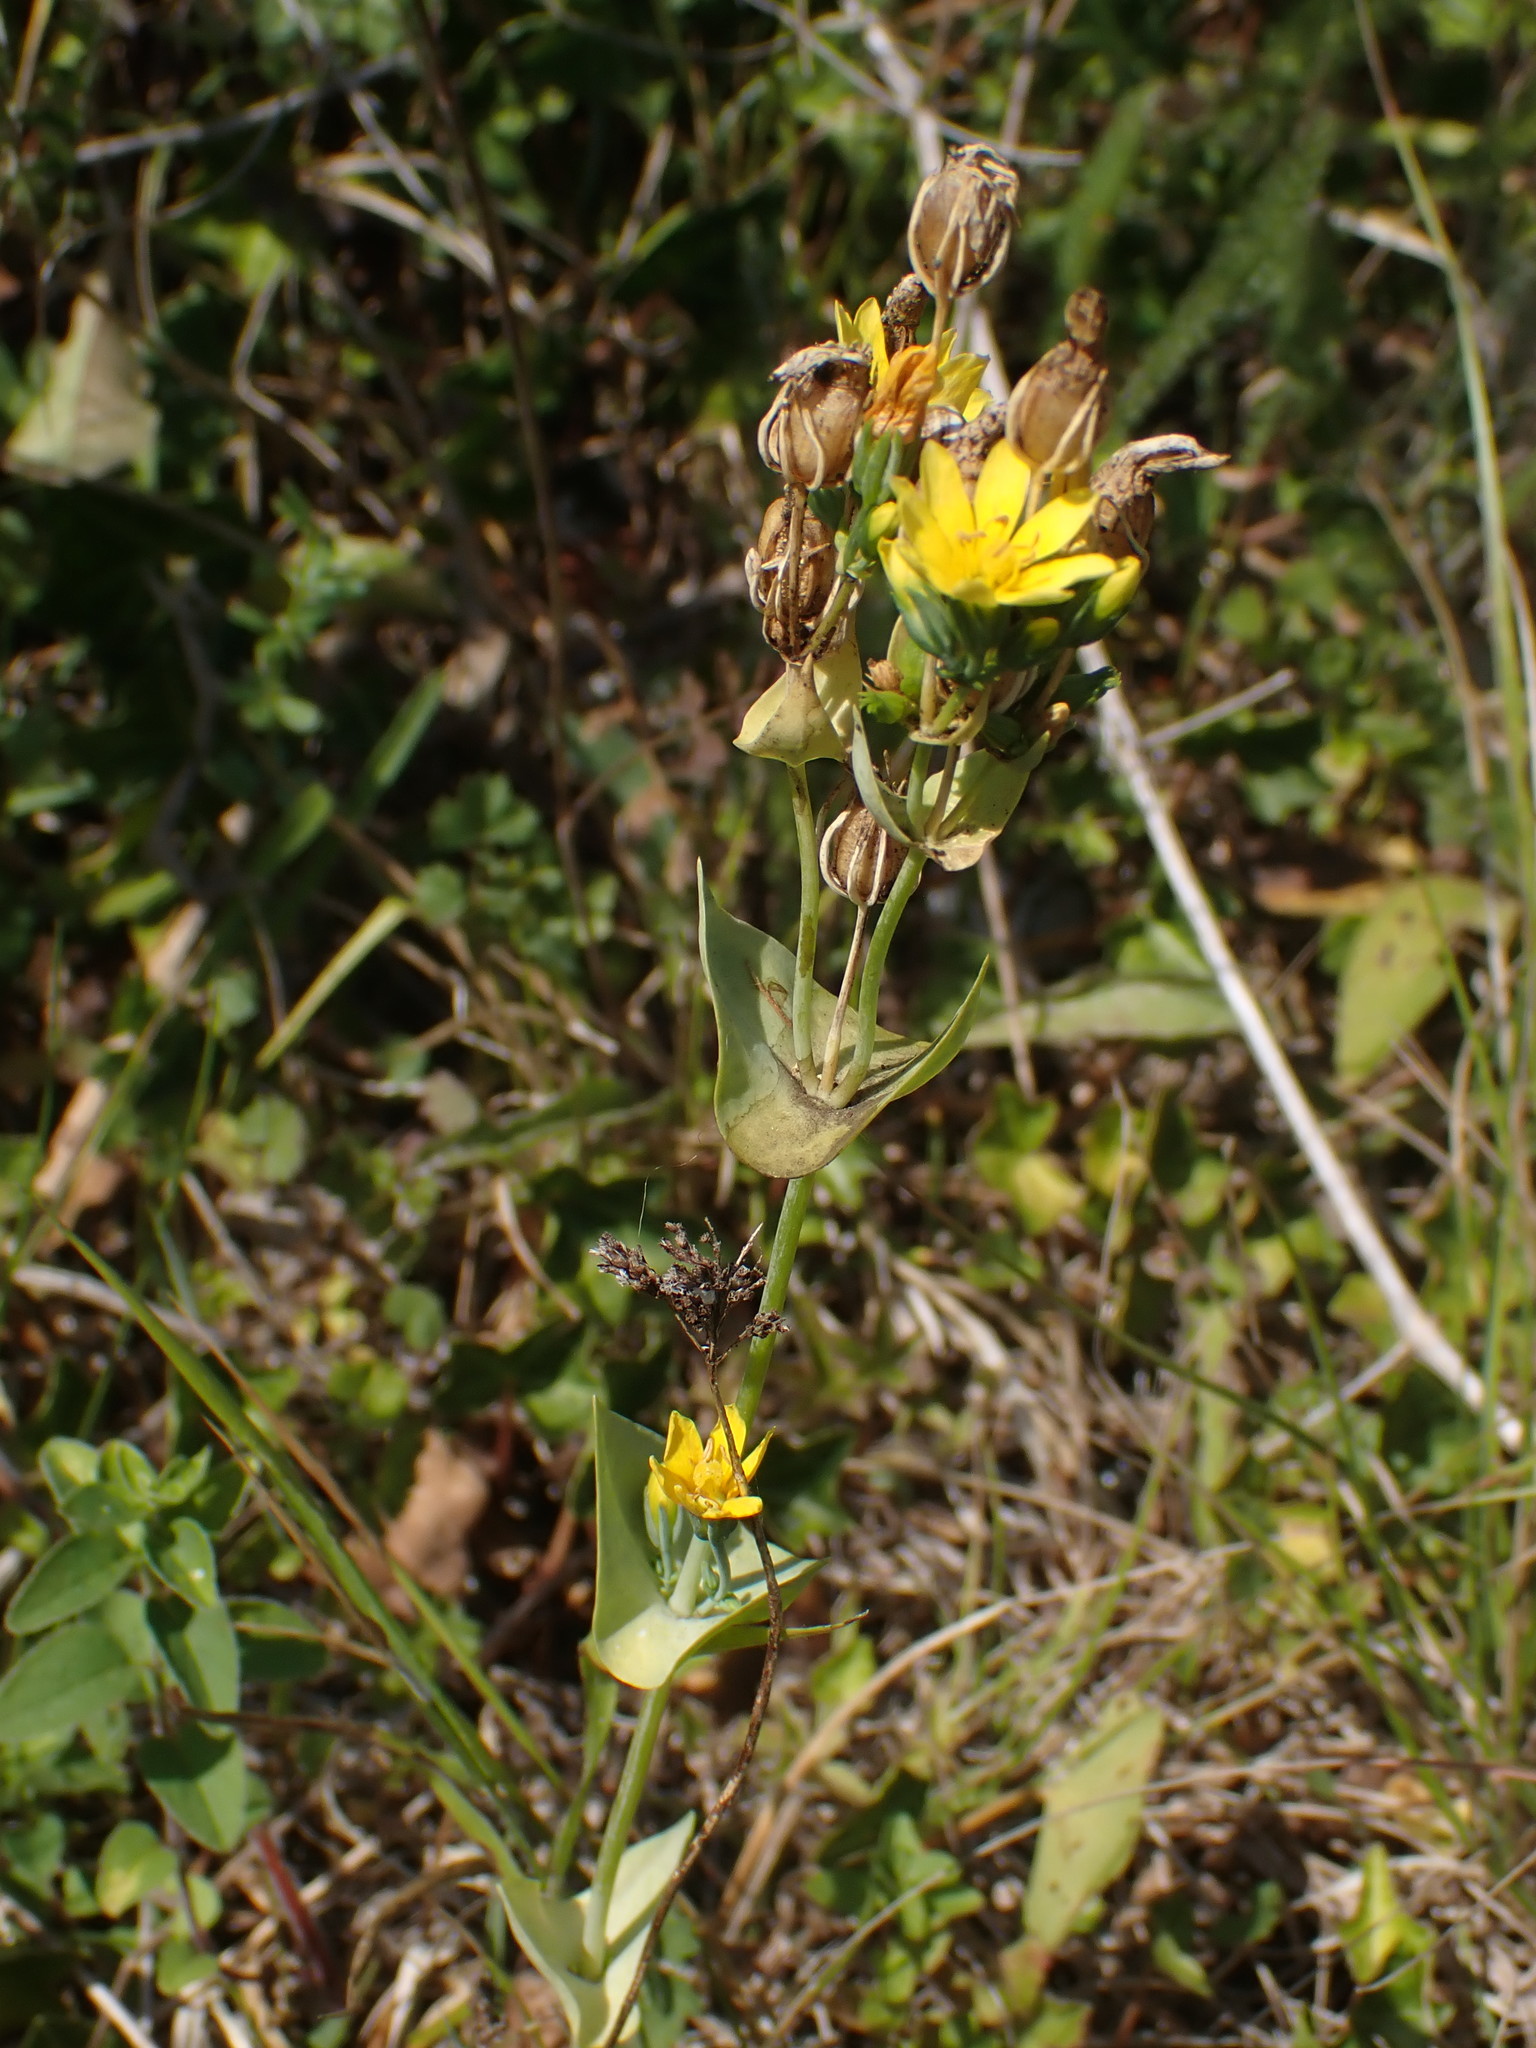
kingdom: Plantae
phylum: Tracheophyta
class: Magnoliopsida
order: Gentianales
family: Gentianaceae
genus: Blackstonia
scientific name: Blackstonia perfoliata
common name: Yellow-wort
